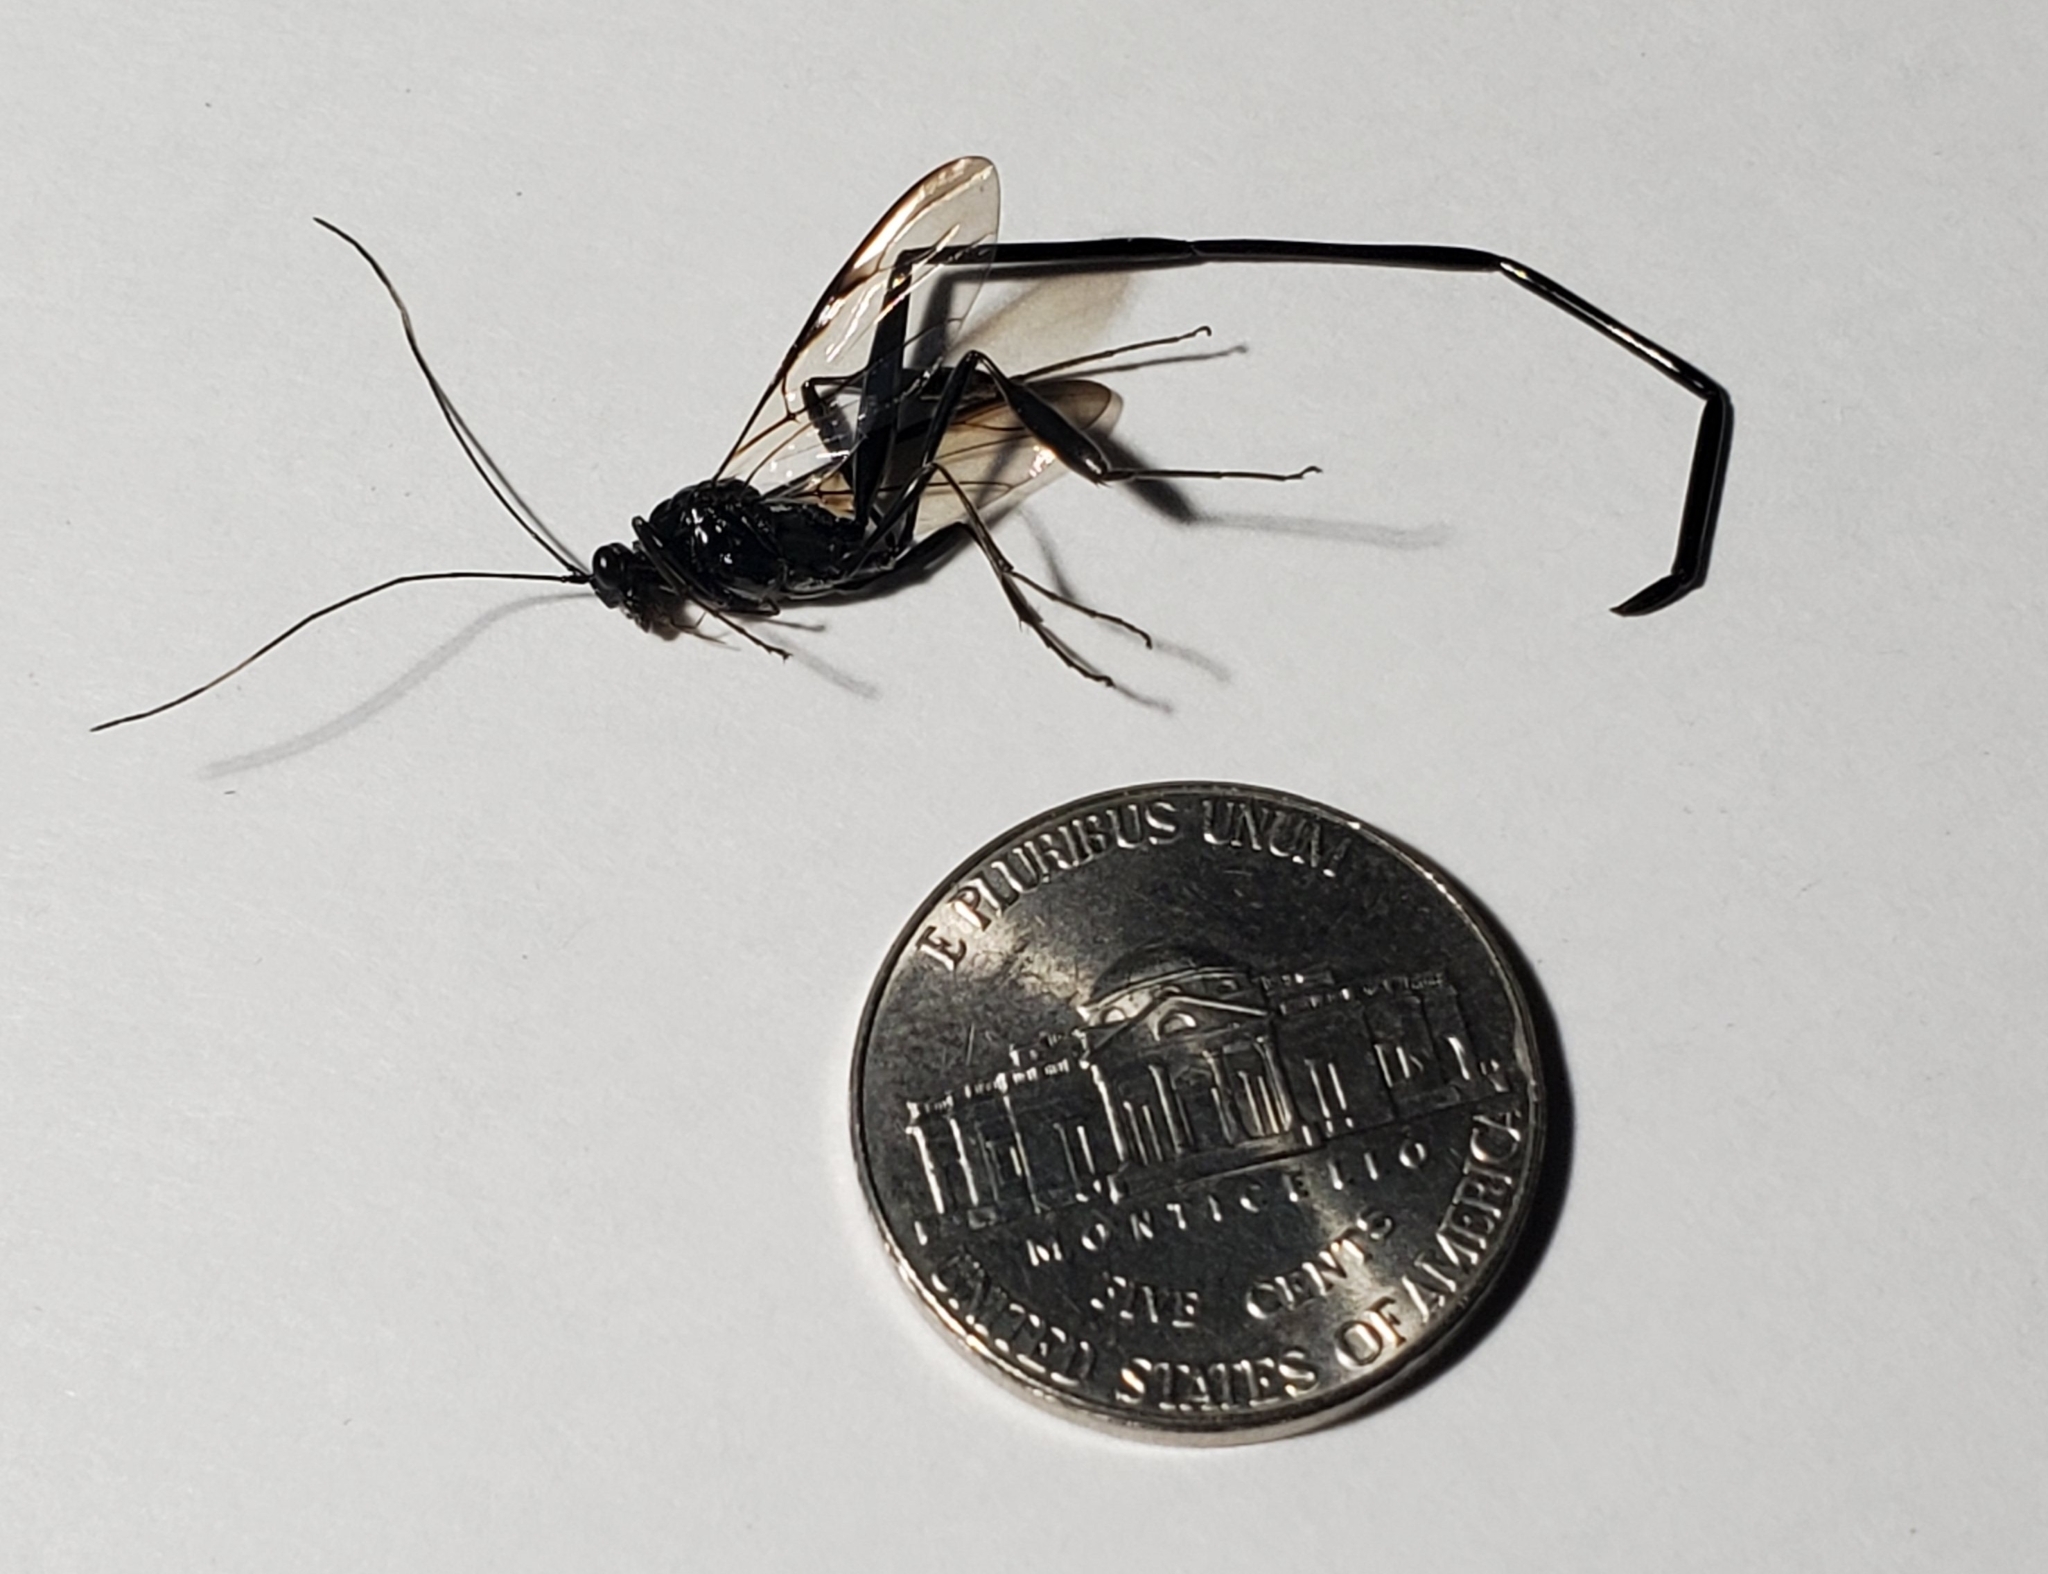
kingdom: Animalia
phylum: Arthropoda
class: Insecta
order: Hymenoptera
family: Pelecinidae
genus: Pelecinus
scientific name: Pelecinus polyturator
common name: American pelecinid wasp
